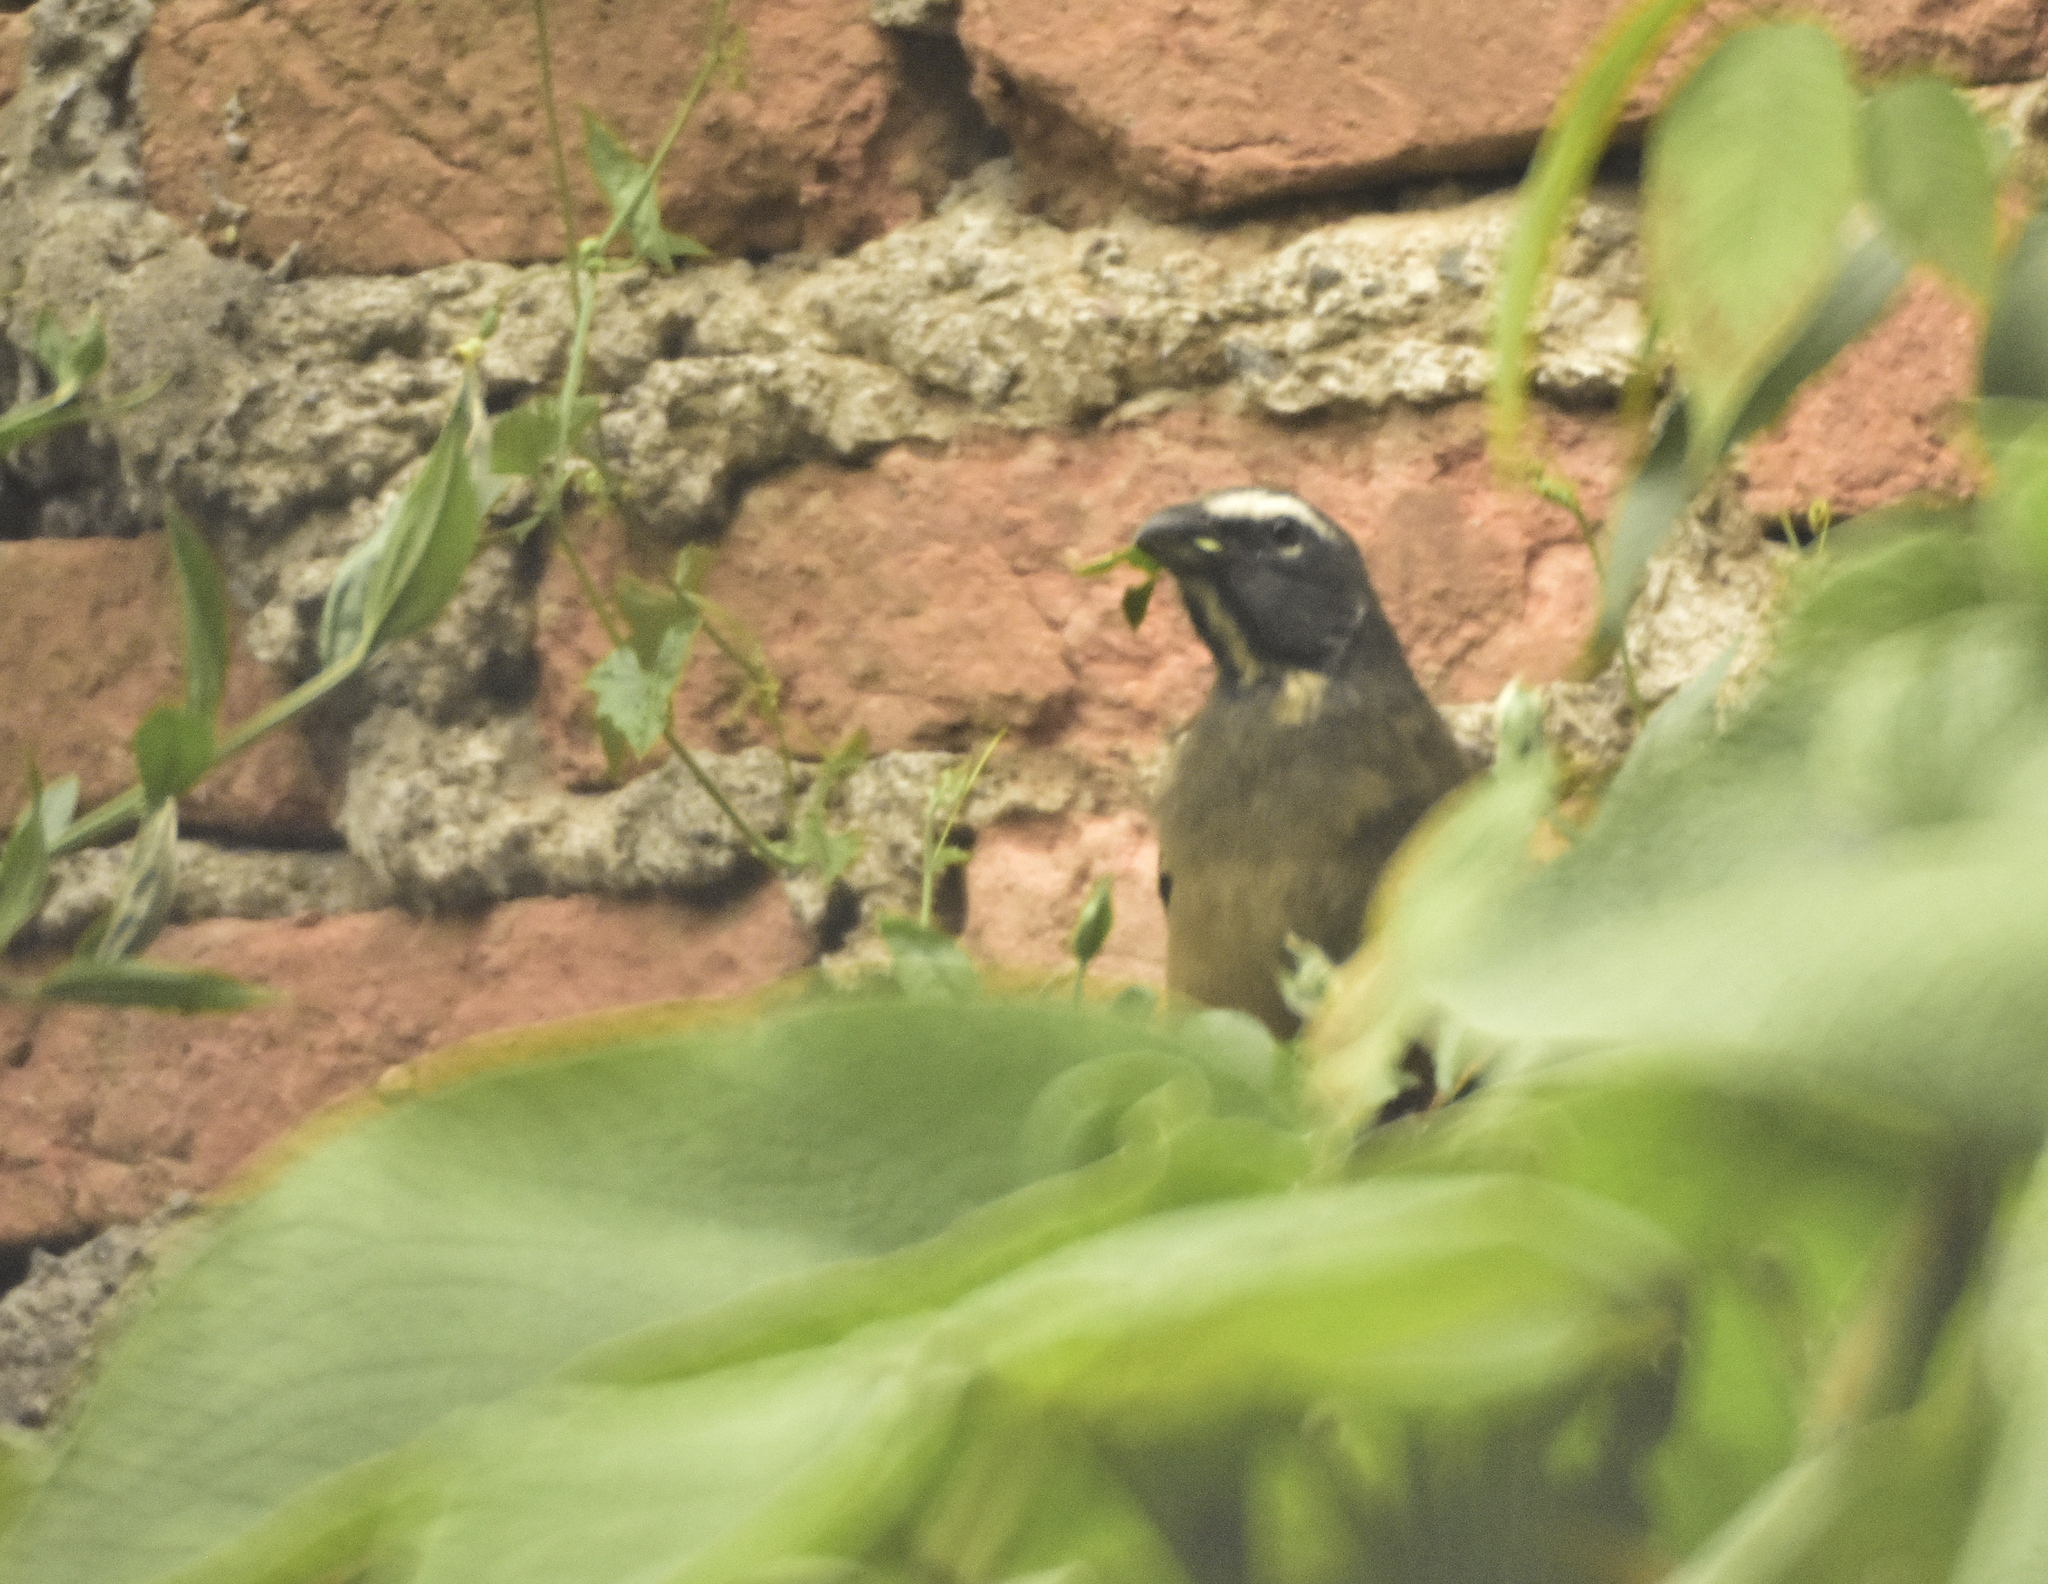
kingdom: Animalia
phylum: Chordata
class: Aves
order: Passeriformes
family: Thraupidae
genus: Saltator
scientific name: Saltator grandis
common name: Cinnamon-bellied saltator
